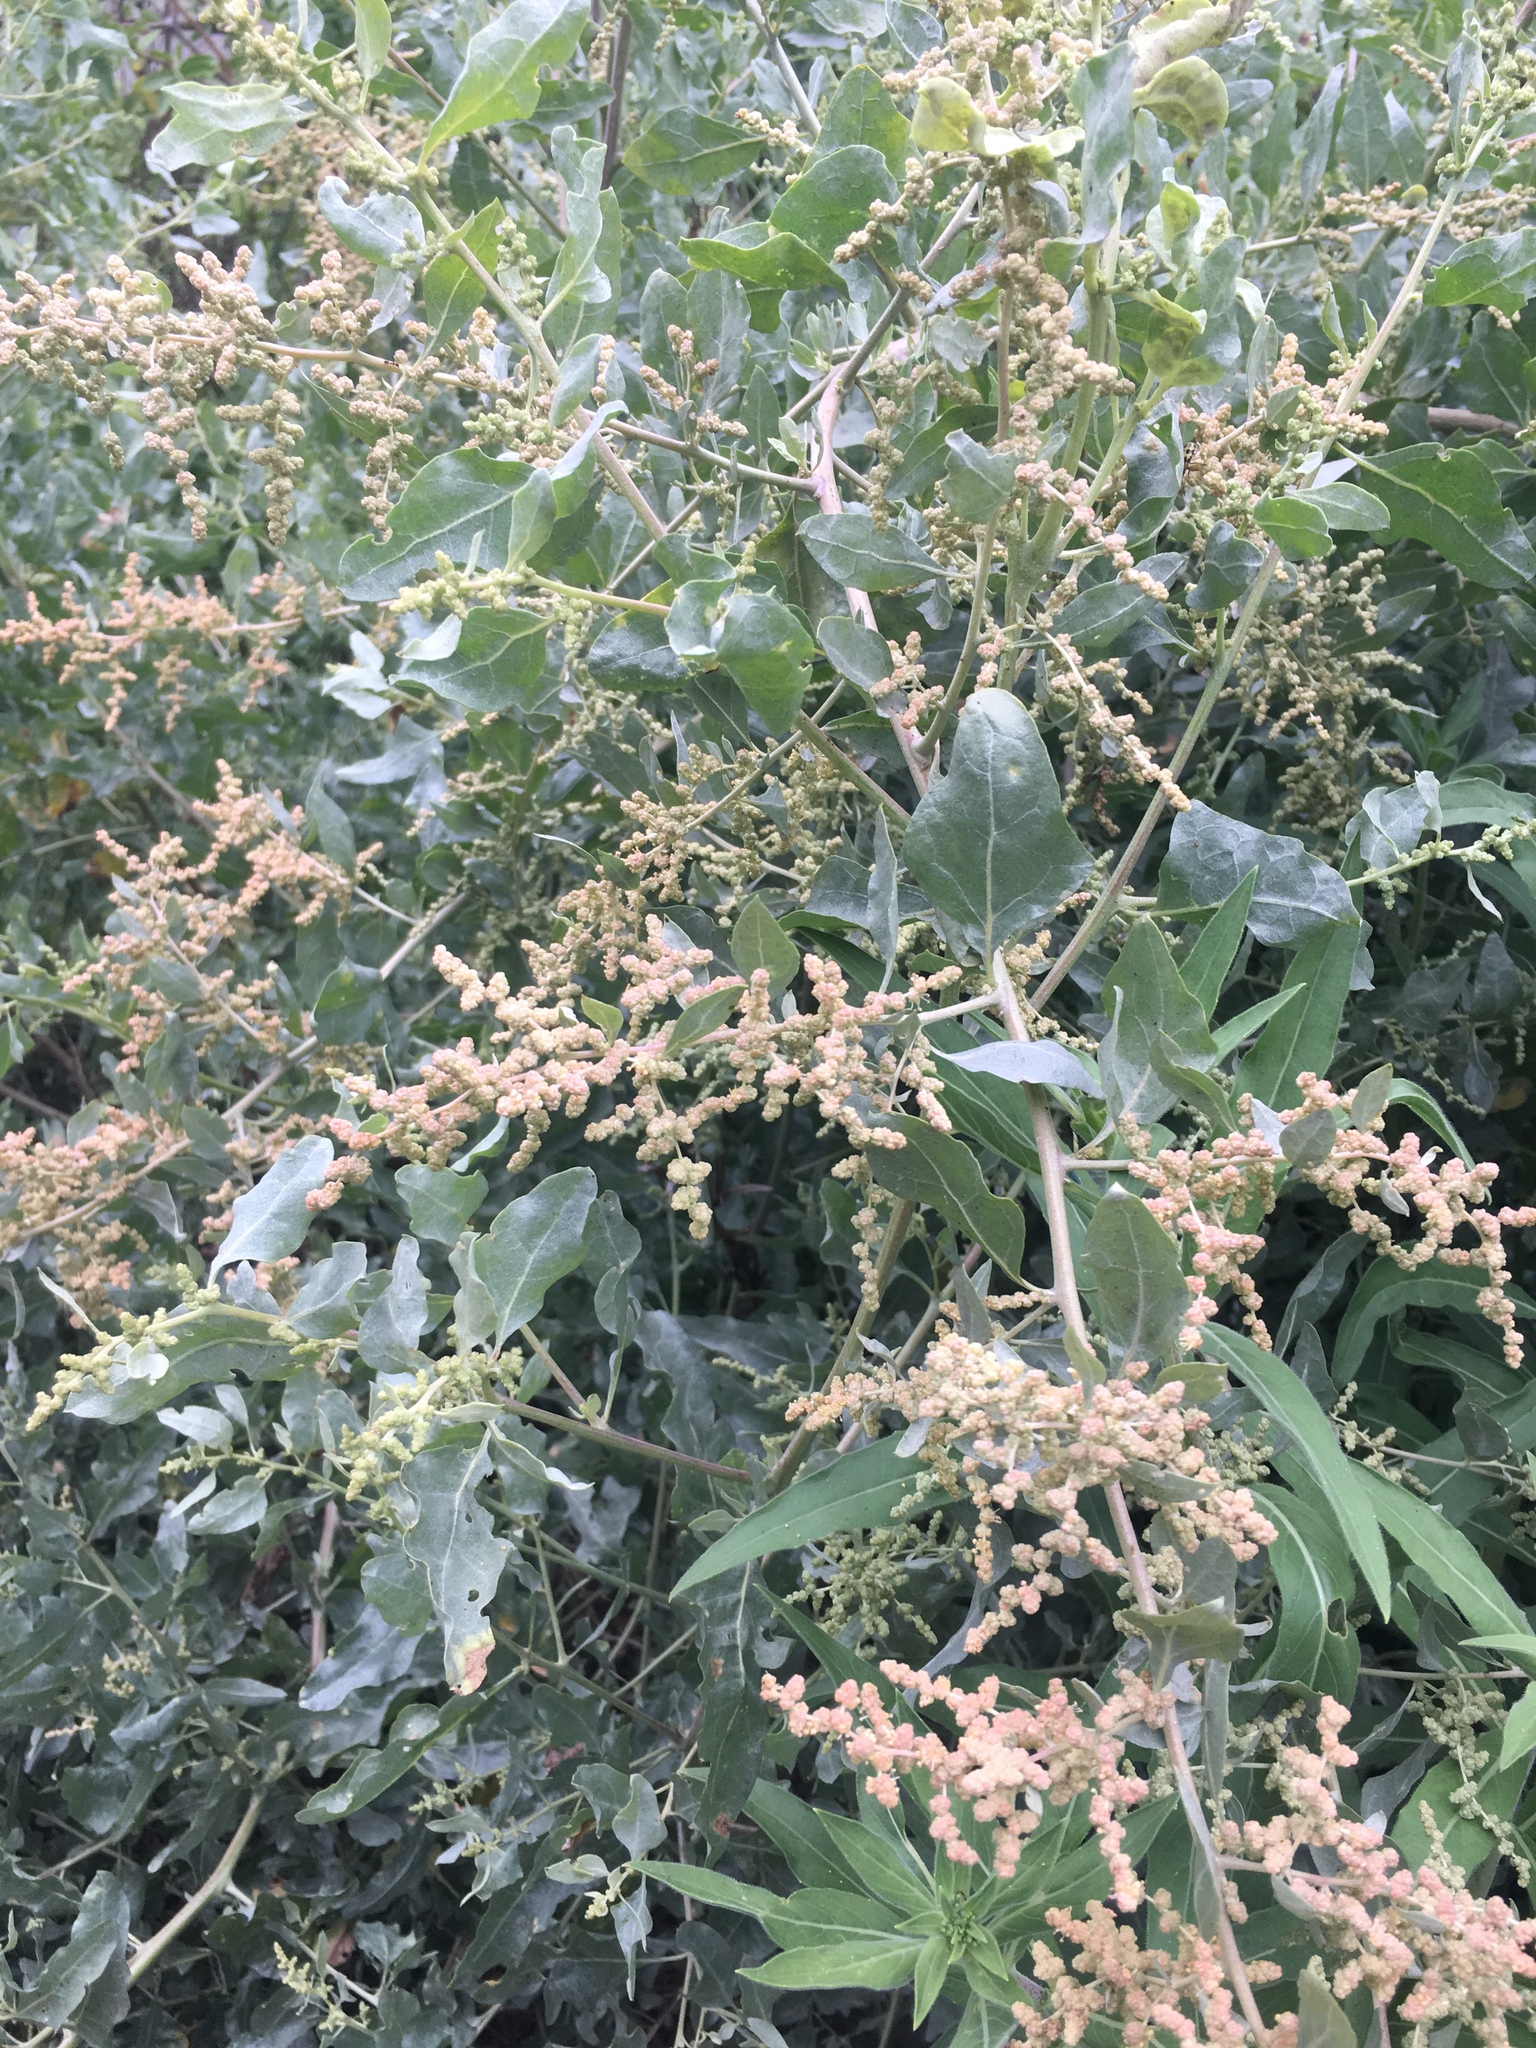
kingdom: Plantae
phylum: Tracheophyta
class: Magnoliopsida
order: Caryophyllales
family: Amaranthaceae
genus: Atriplex
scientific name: Atriplex lentiformis
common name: Big saltbush
